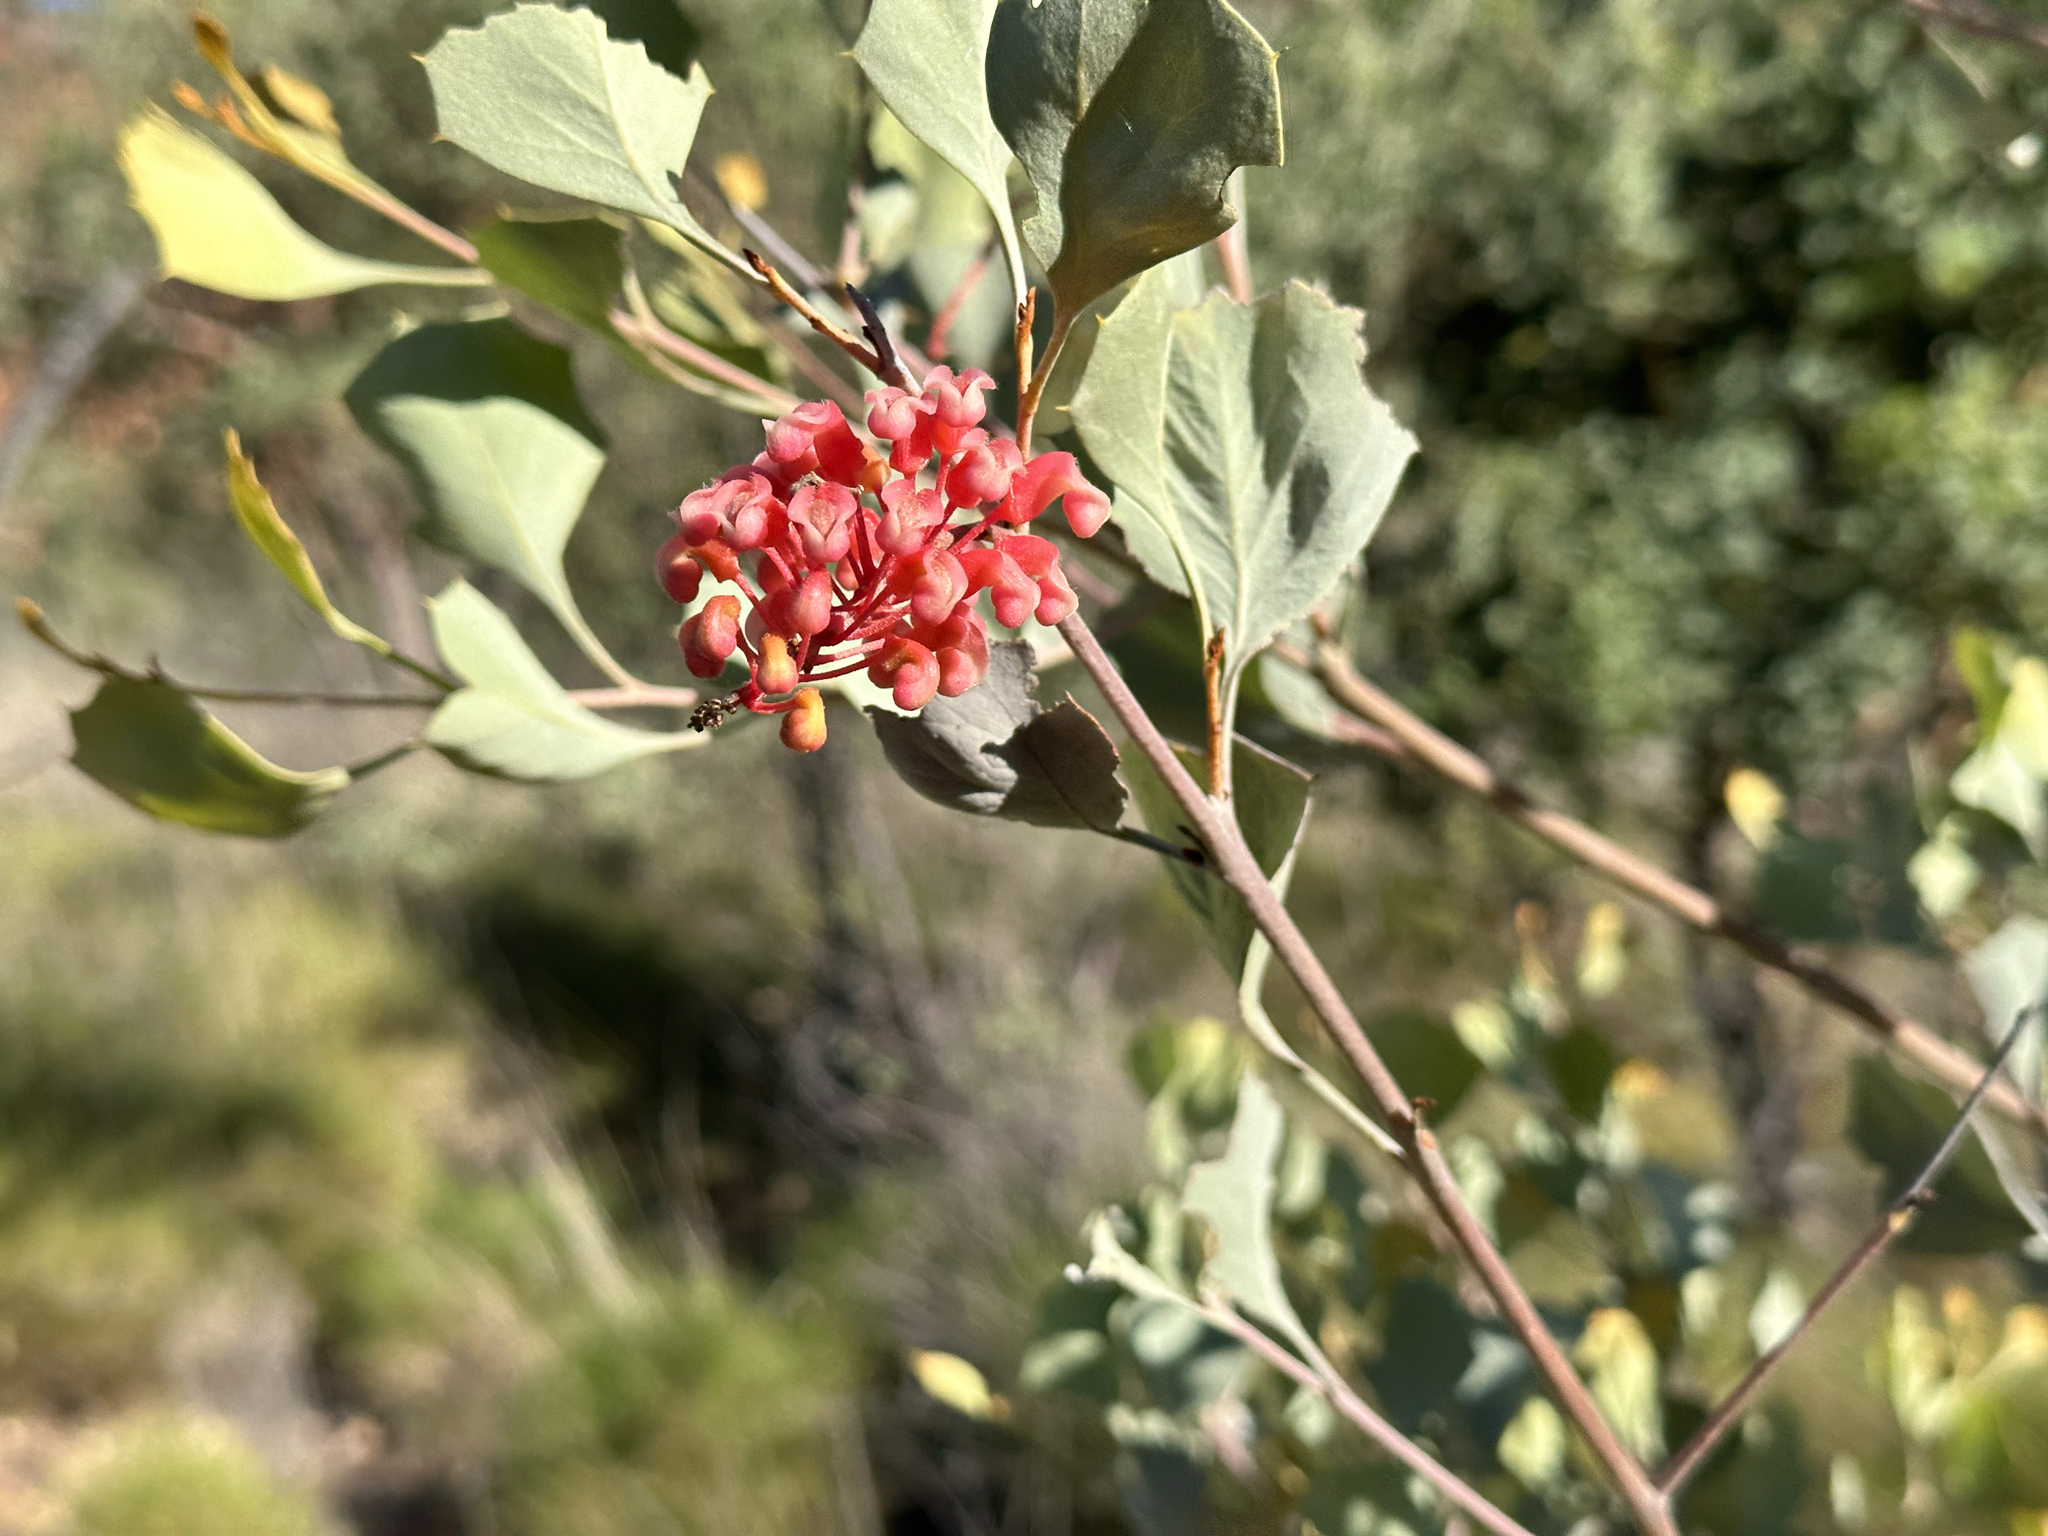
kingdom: Plantae
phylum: Tracheophyta
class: Magnoliopsida
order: Proteales
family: Proteaceae
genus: Grevillea
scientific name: Grevillea wickhamii
